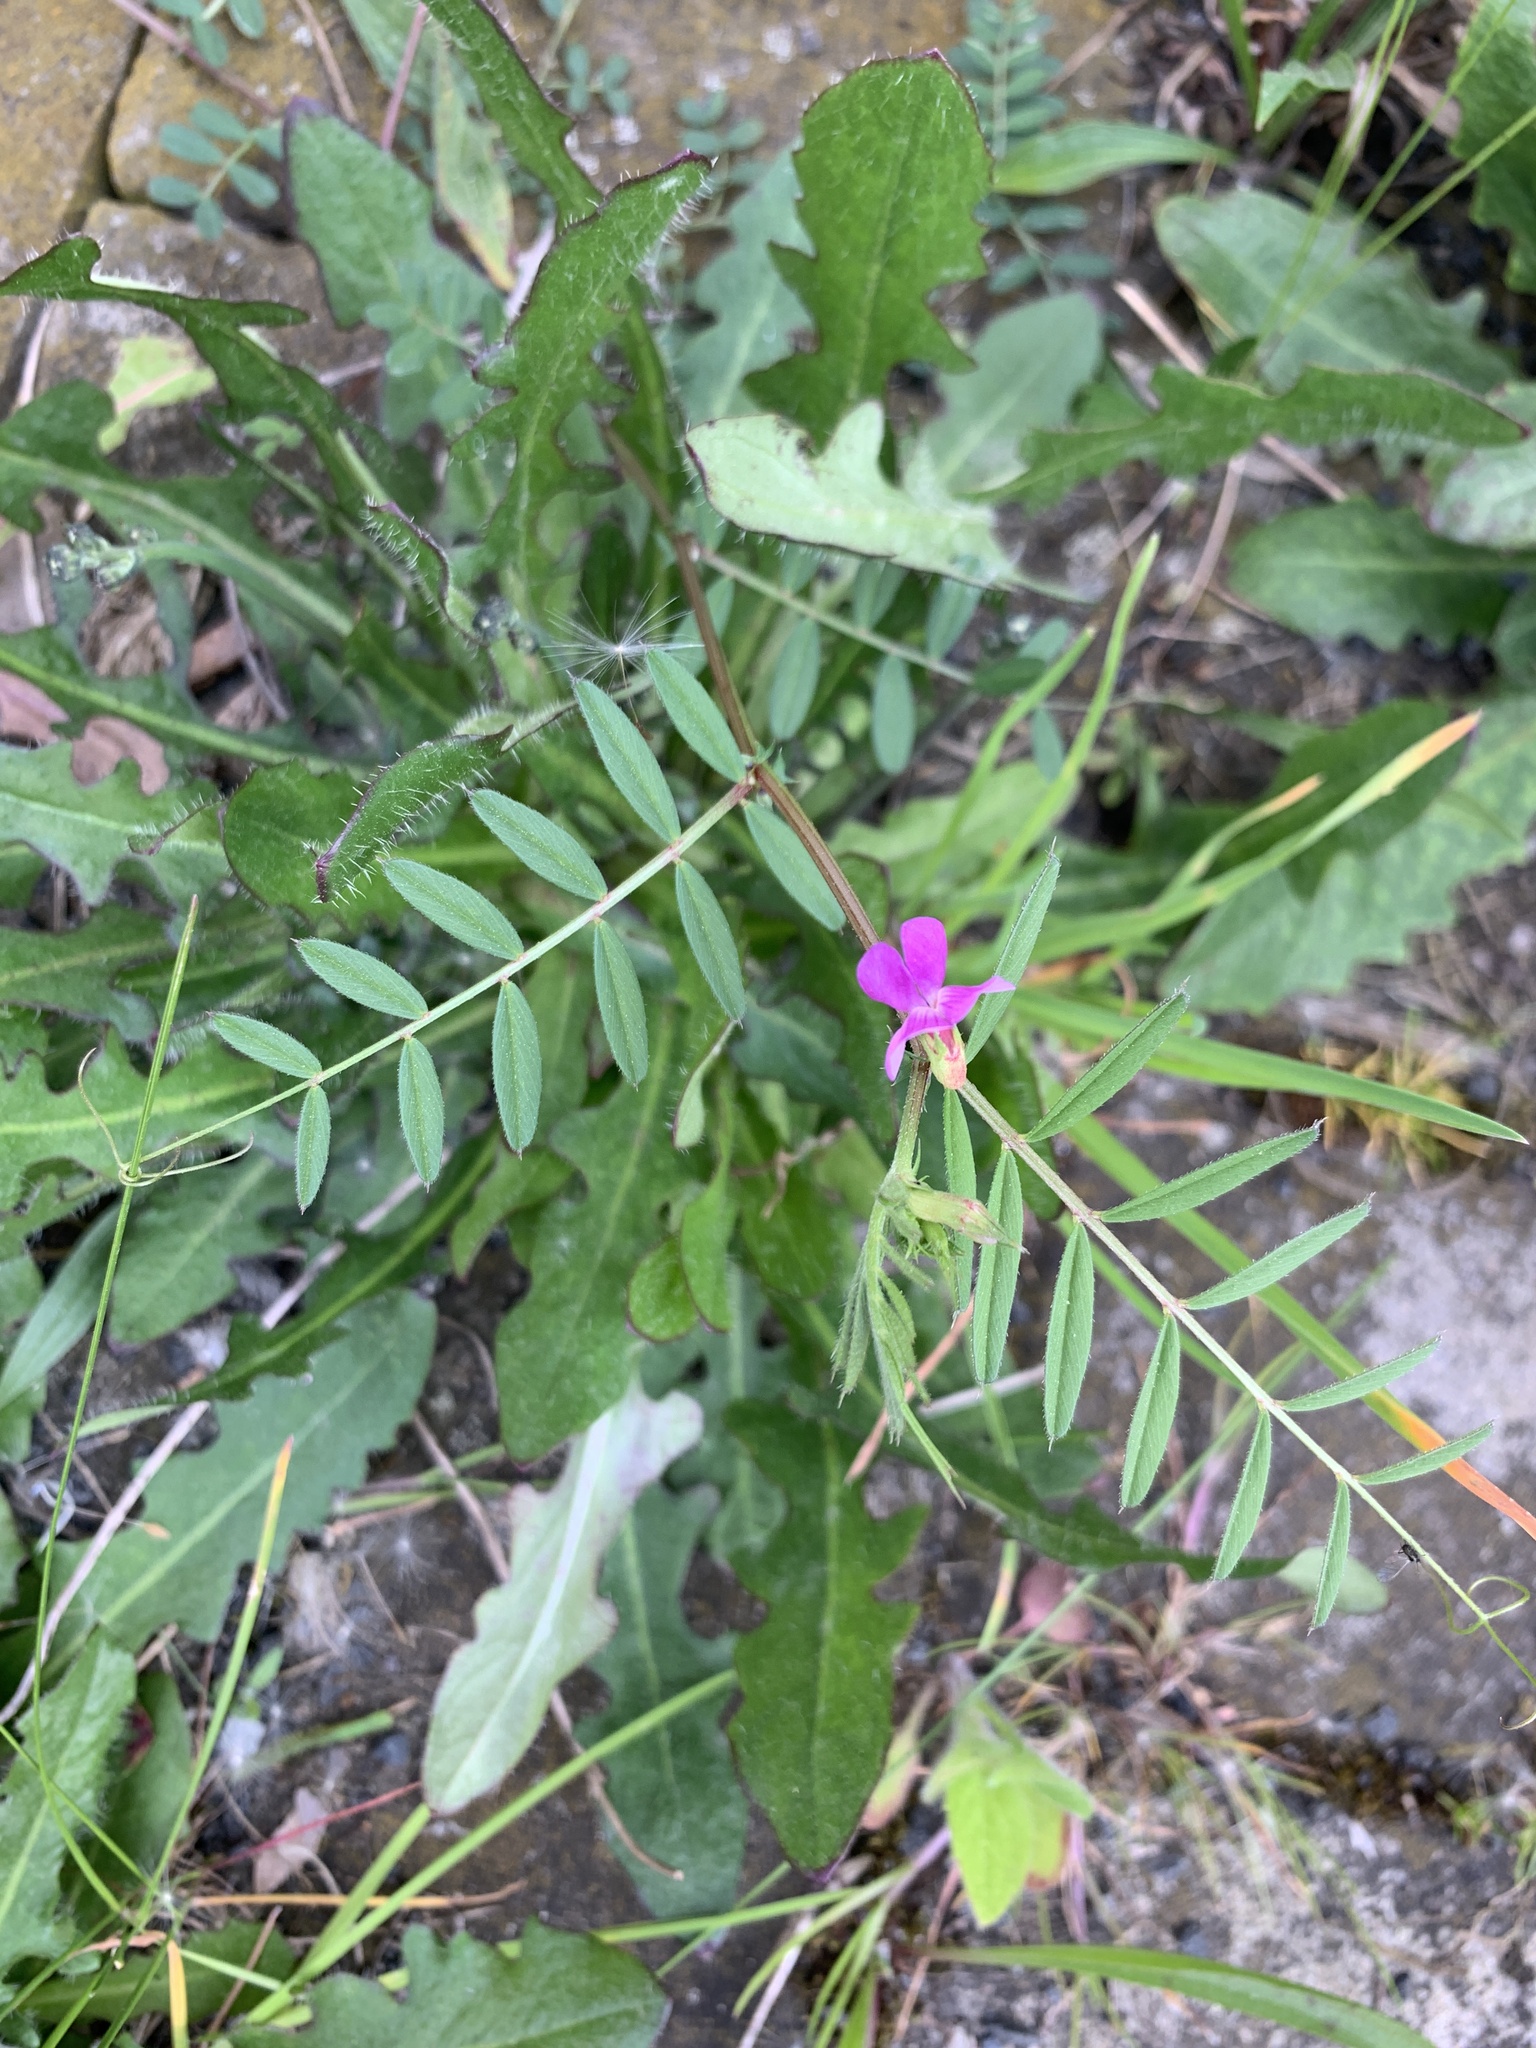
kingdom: Plantae
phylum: Tracheophyta
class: Magnoliopsida
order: Fabales
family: Fabaceae
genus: Vicia
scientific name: Vicia sativa
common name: Garden vetch
